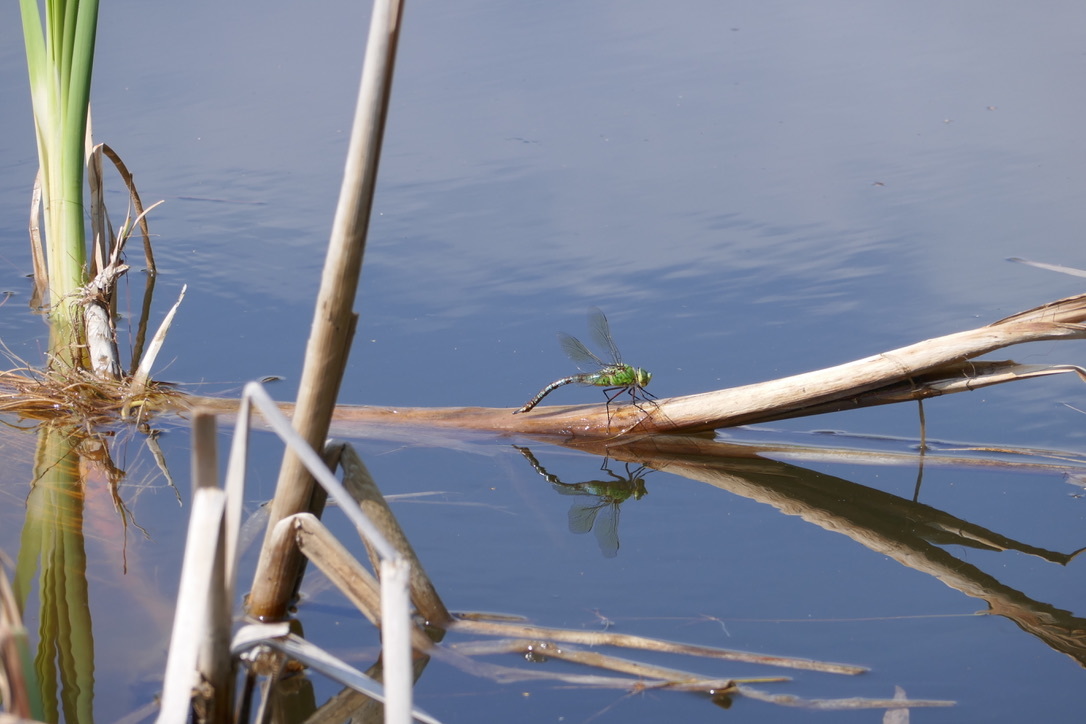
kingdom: Animalia
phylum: Arthropoda
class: Insecta
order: Odonata
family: Aeshnidae
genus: Anax
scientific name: Anax imperator
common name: Emperor dragonfly
